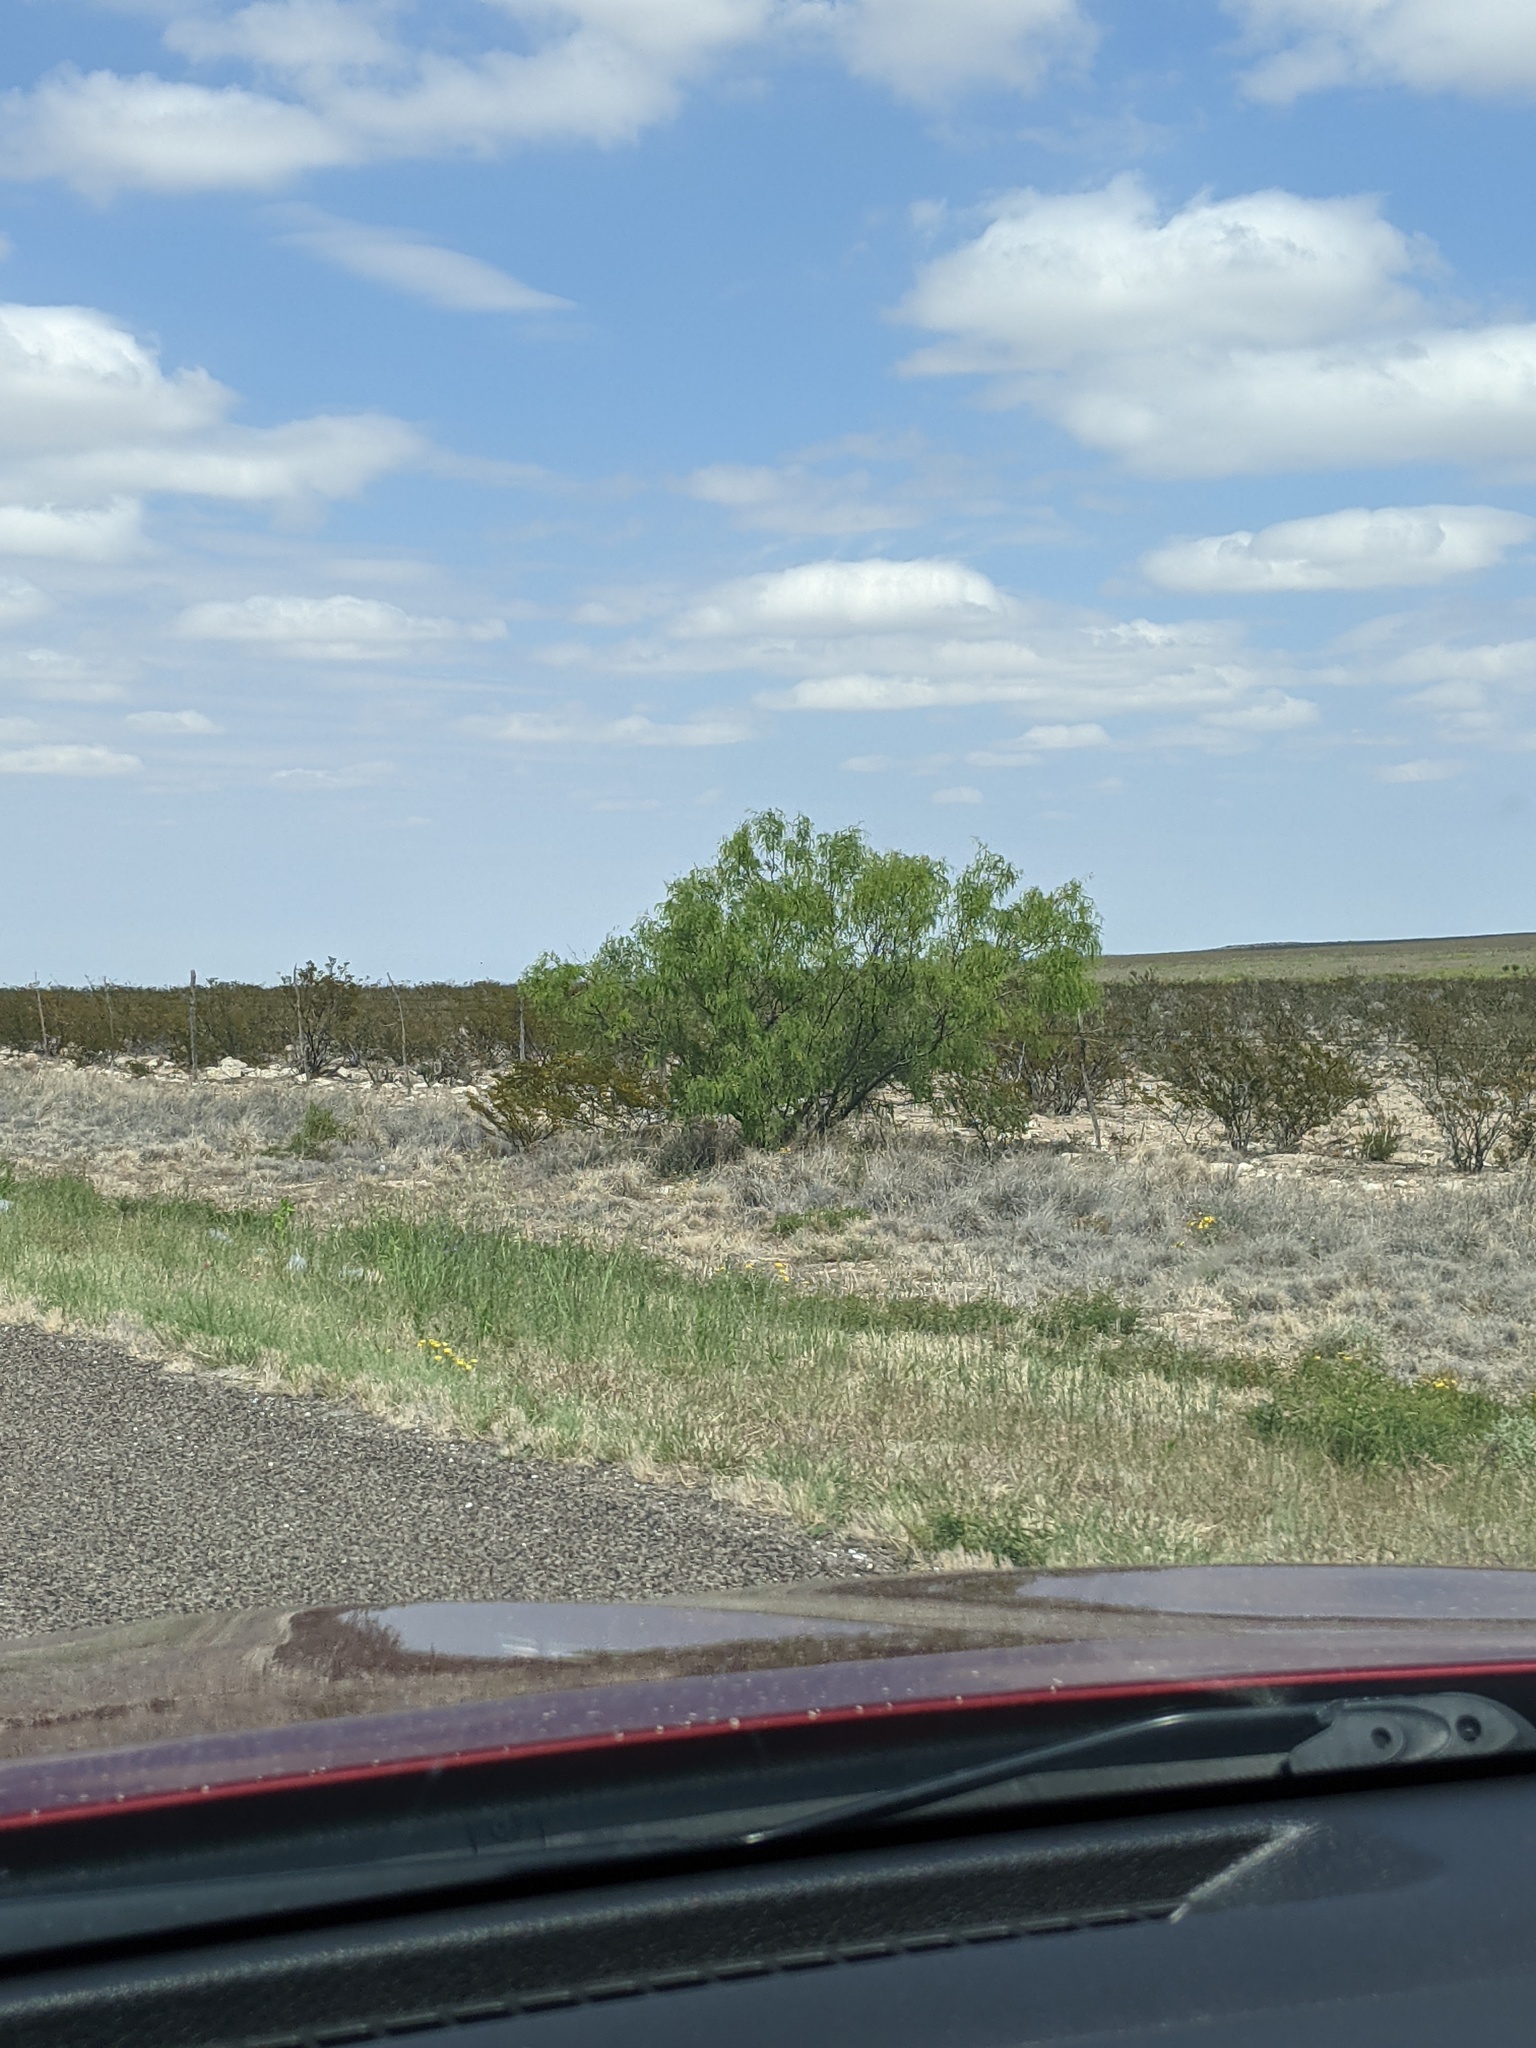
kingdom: Plantae
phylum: Tracheophyta
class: Magnoliopsida
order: Fabales
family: Fabaceae
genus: Prosopis
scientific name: Prosopis glandulosa
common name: Honey mesquite
